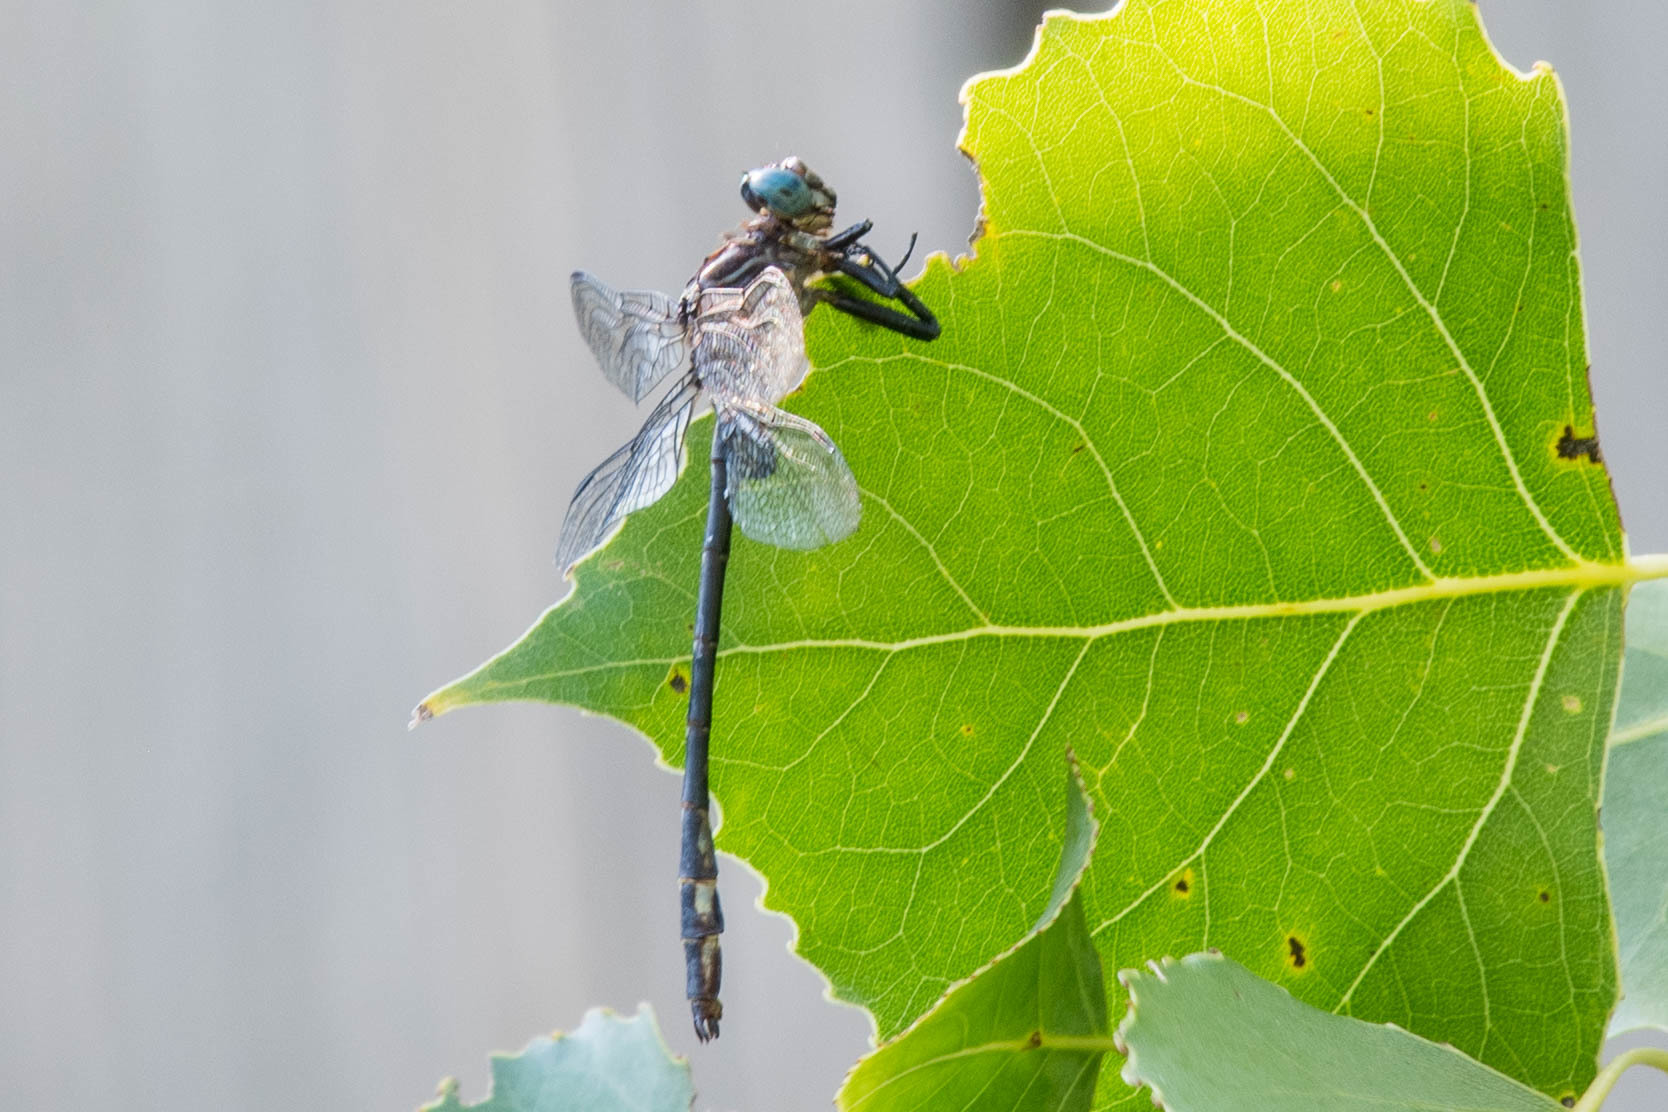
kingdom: Animalia
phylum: Arthropoda
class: Insecta
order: Odonata
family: Gomphidae
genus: Stylurus
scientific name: Stylurus notatus
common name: Elusive clubtail
